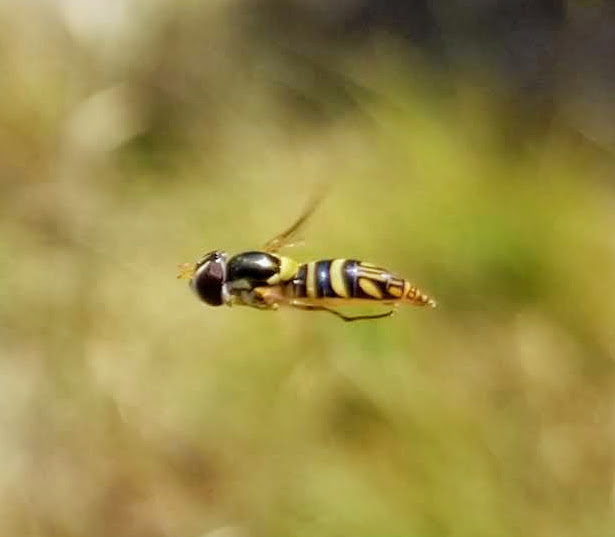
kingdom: Animalia
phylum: Arthropoda
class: Insecta
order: Diptera
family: Syrphidae
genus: Allograpta
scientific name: Allograpta obliqua
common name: Common oblique syrphid
